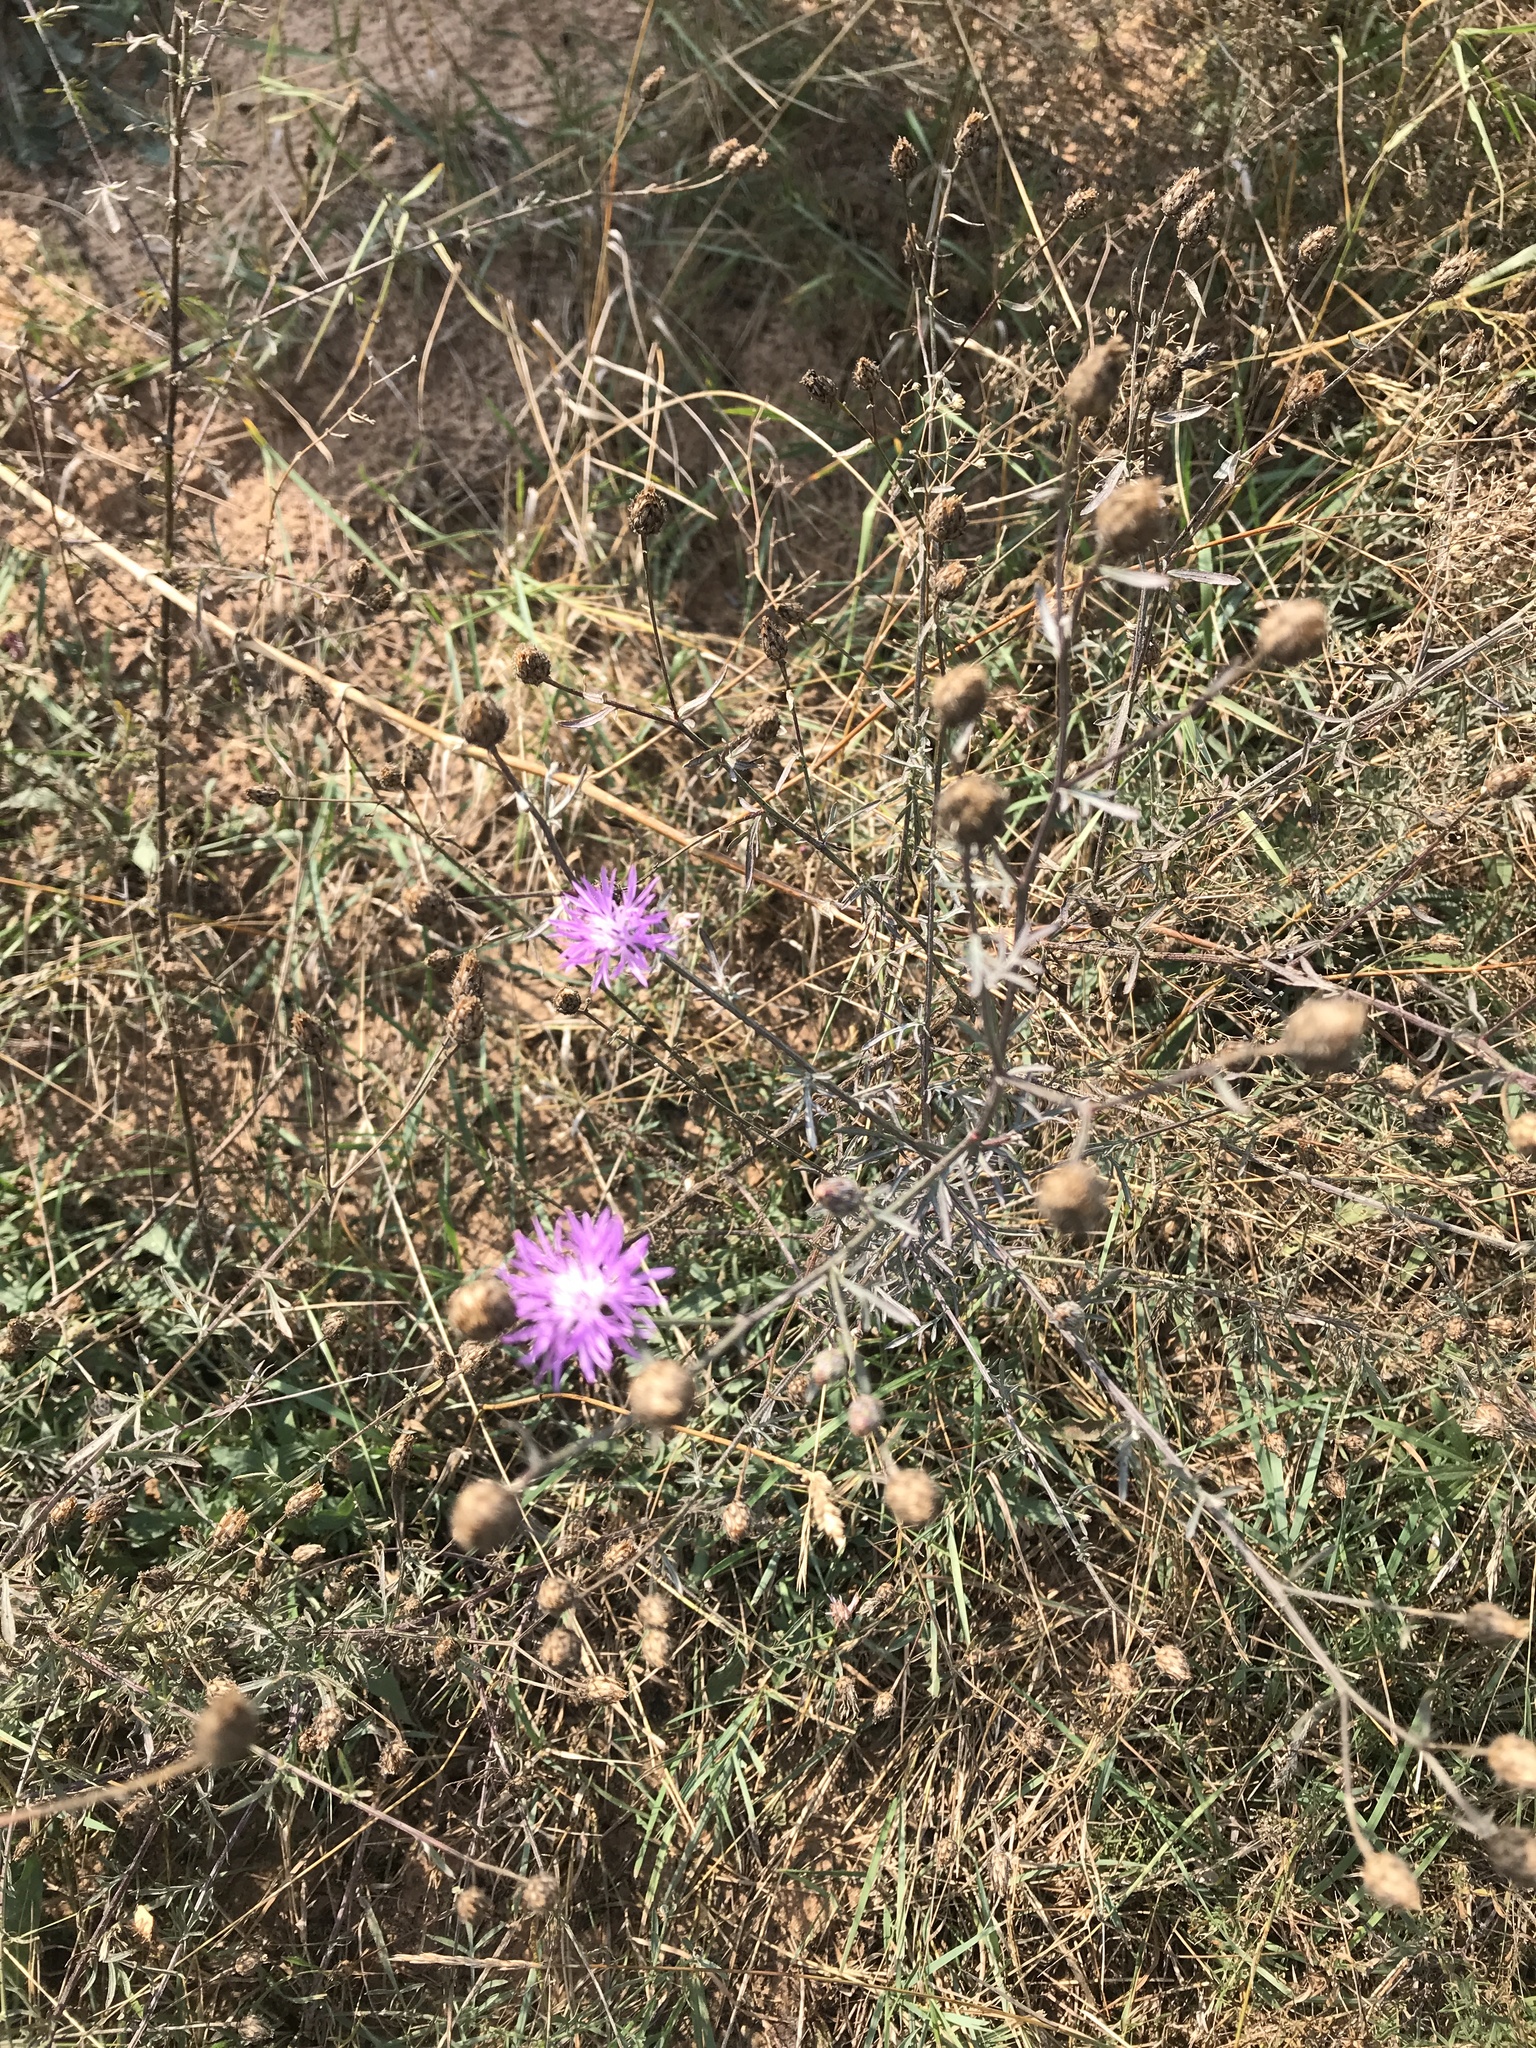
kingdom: Plantae
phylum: Tracheophyta
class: Magnoliopsida
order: Asterales
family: Asteraceae
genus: Centaurea
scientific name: Centaurea stoebe
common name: Spotted knapweed
